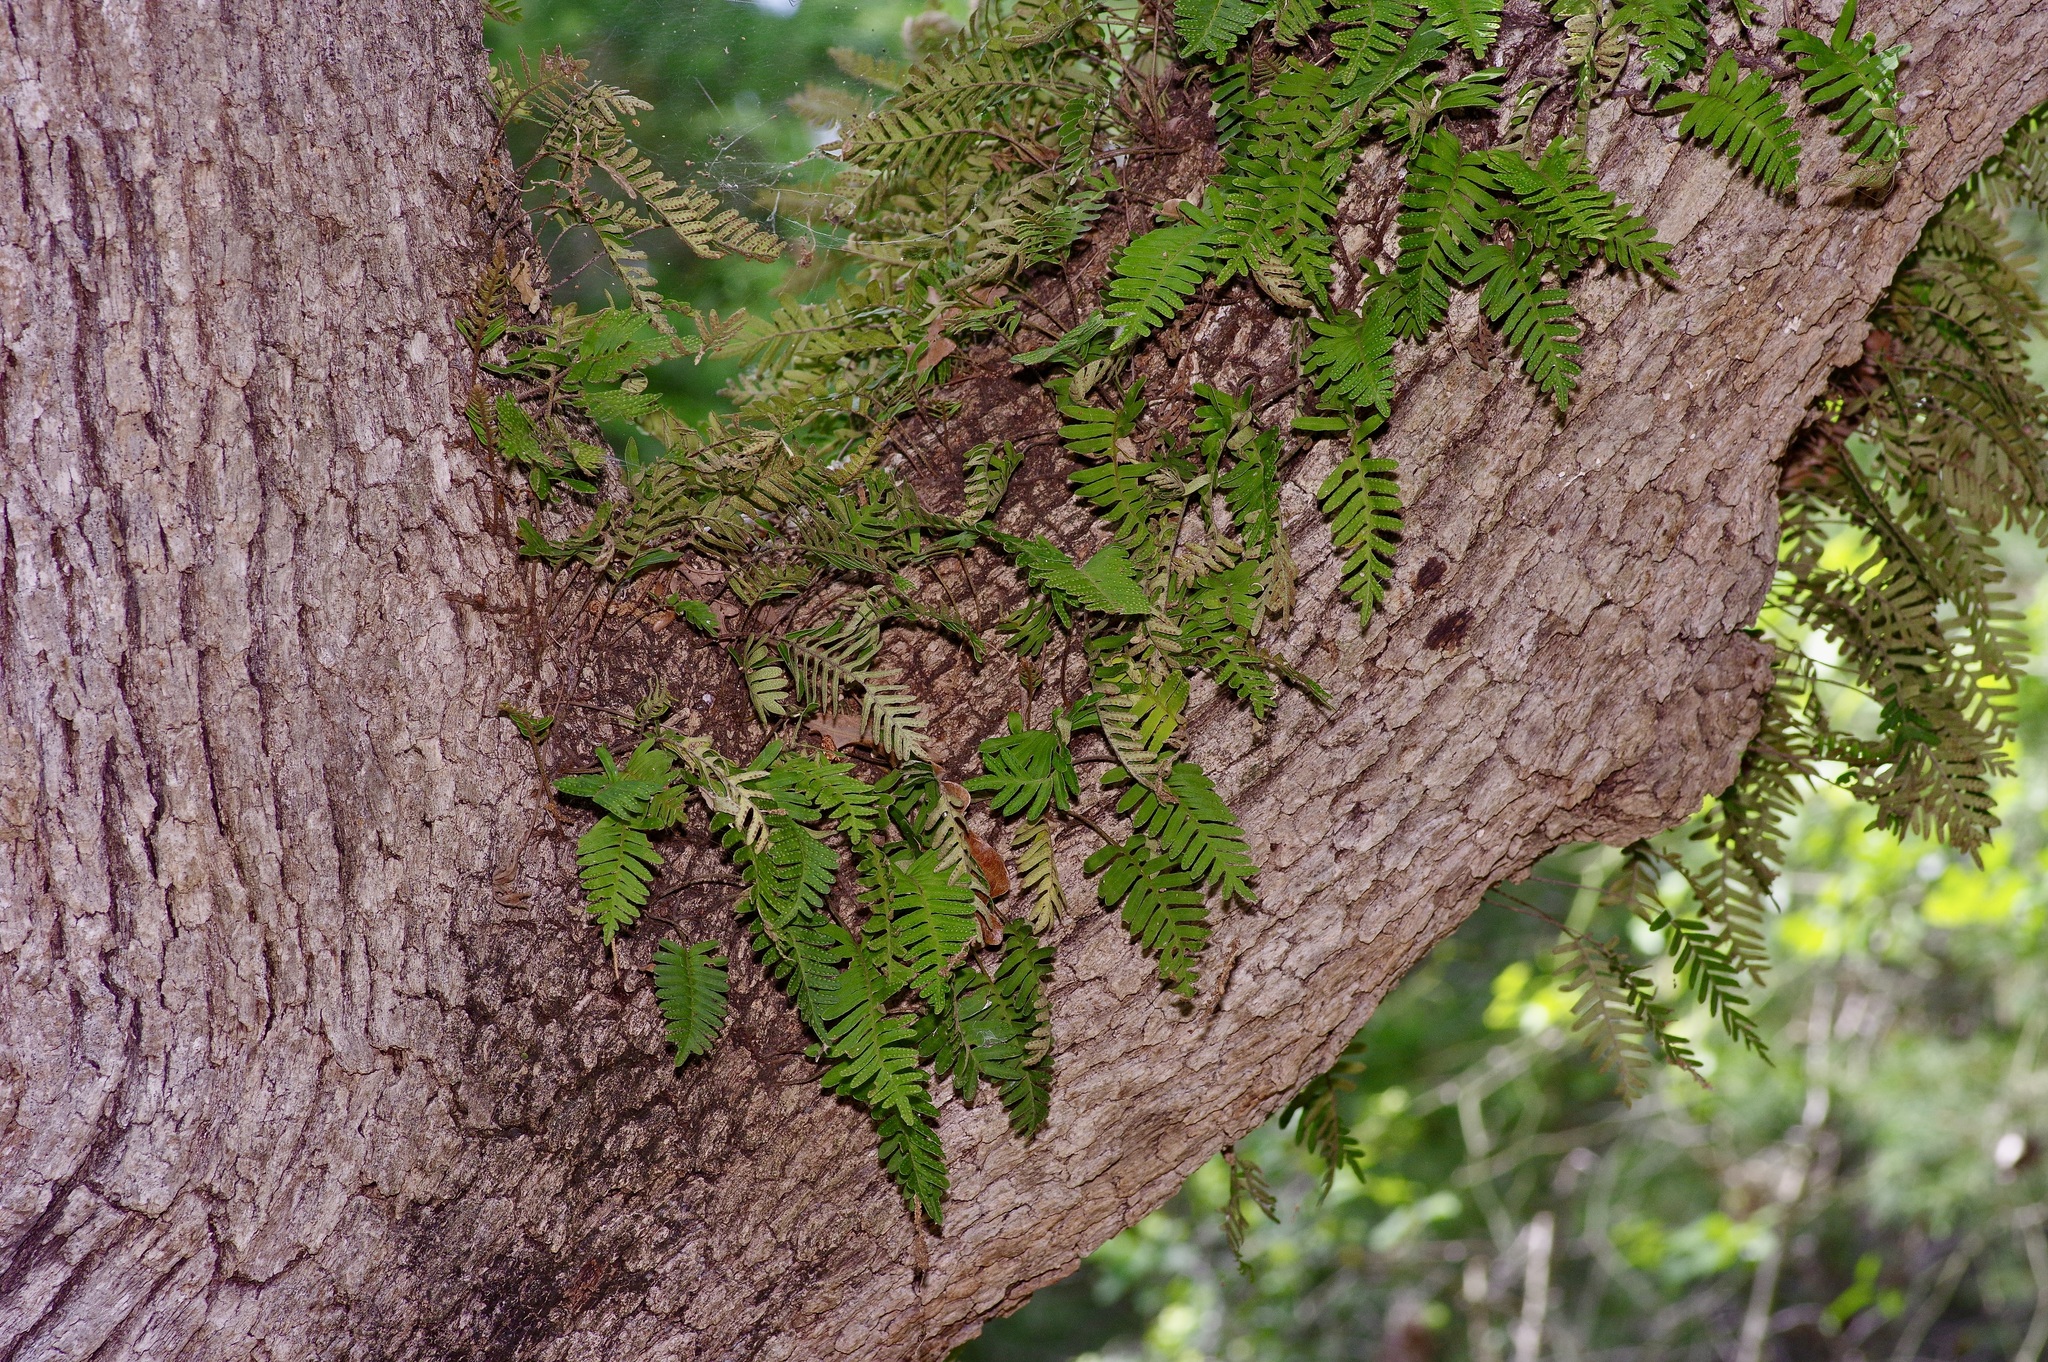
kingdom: Plantae
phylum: Tracheophyta
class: Polypodiopsida
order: Polypodiales
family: Polypodiaceae
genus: Pleopeltis
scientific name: Pleopeltis michauxiana
